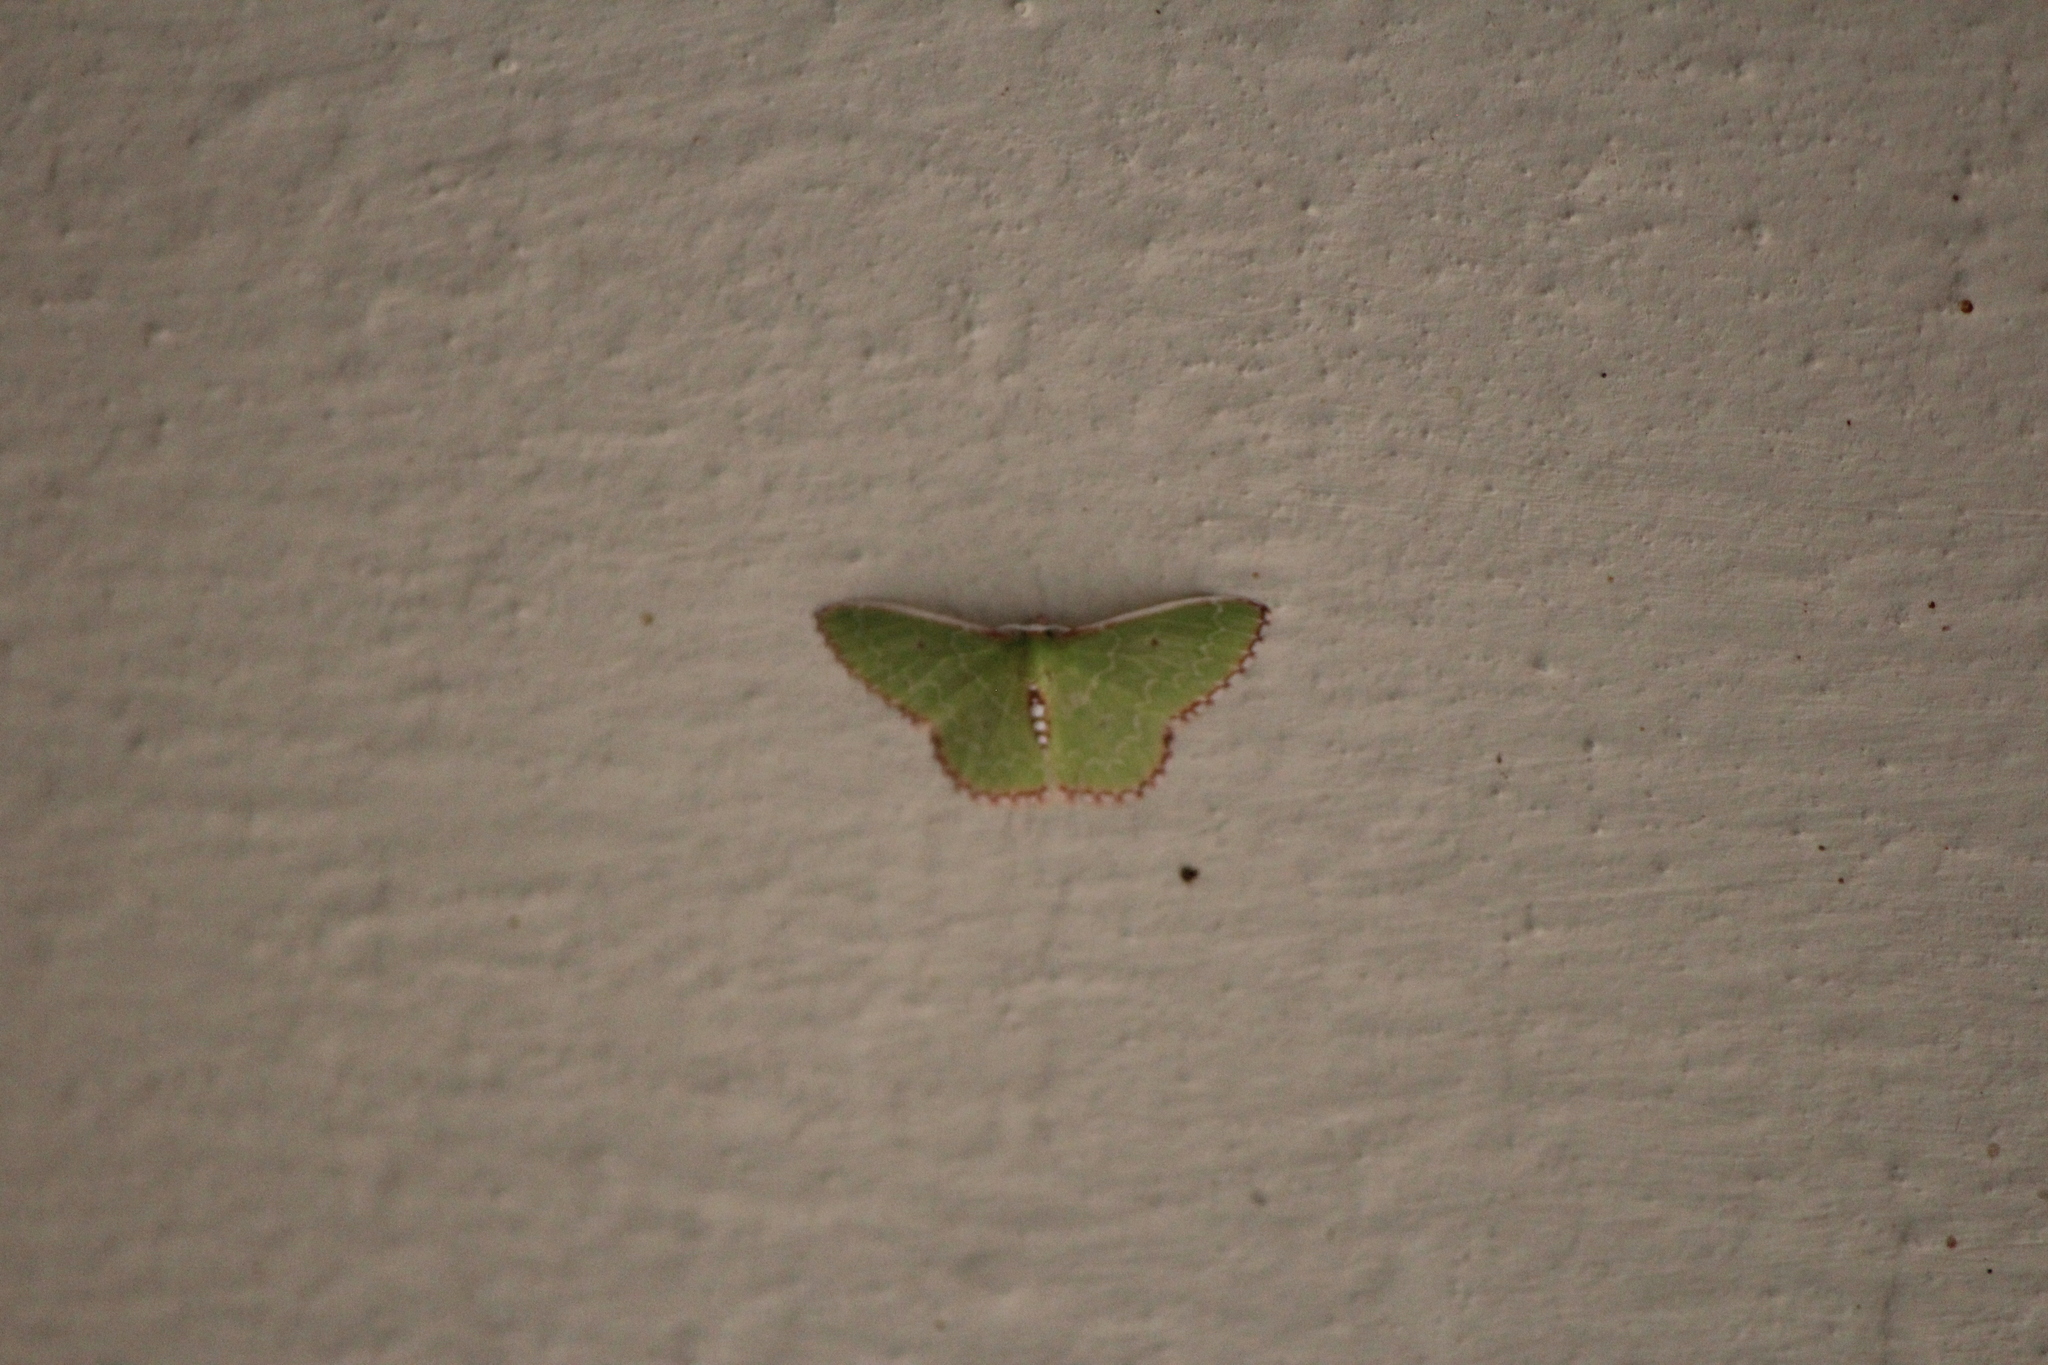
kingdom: Animalia
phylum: Arthropoda
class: Insecta
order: Lepidoptera
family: Geometridae
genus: Nemoria
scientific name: Nemoria lixaria
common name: Red-bordered emerald
